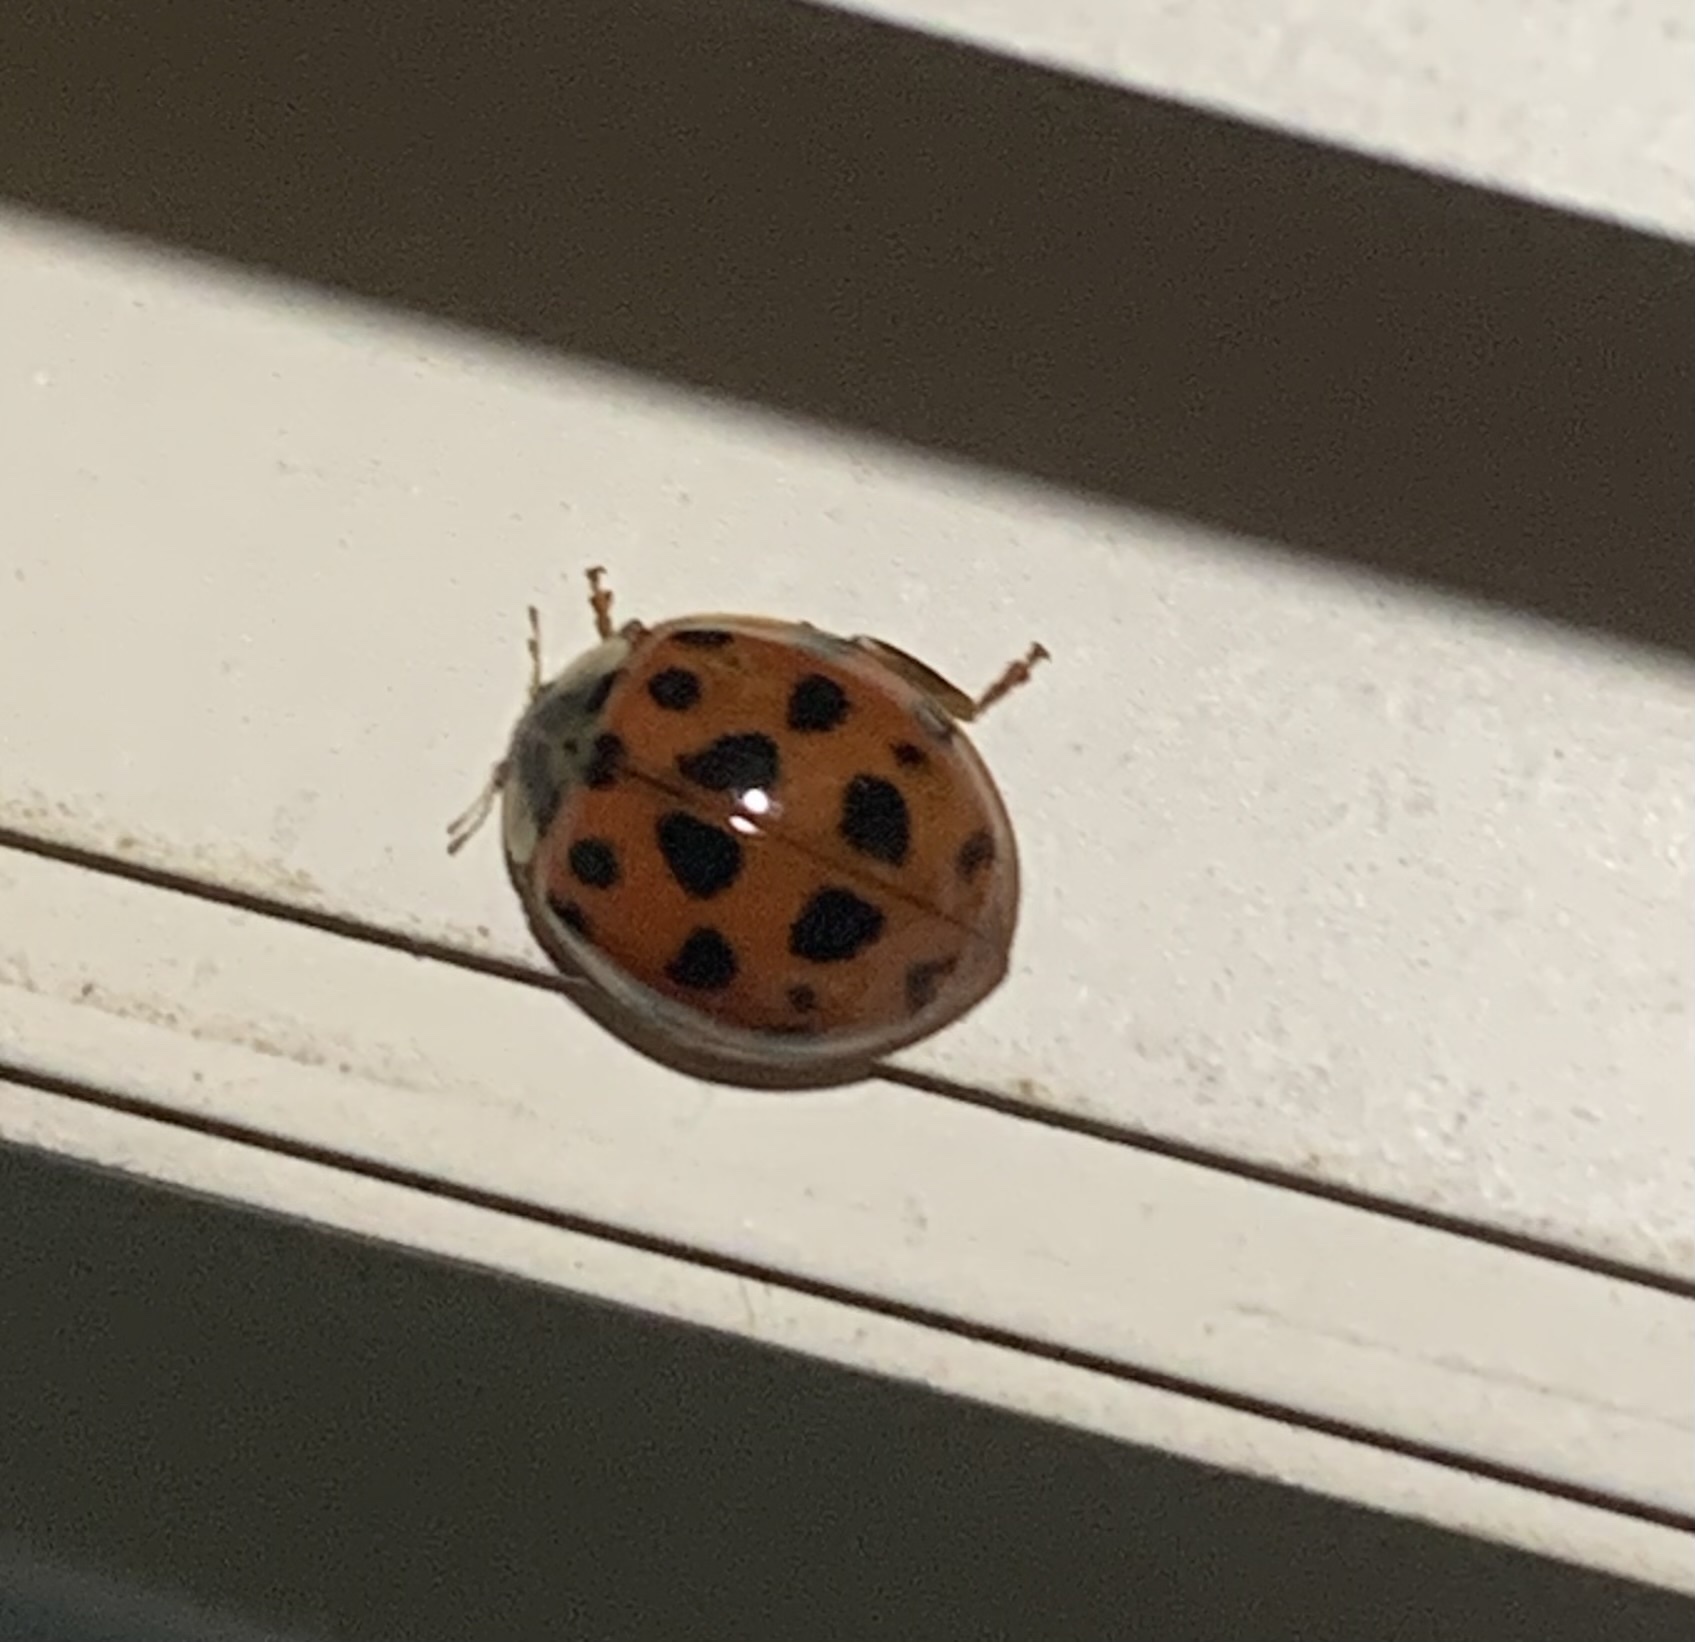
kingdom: Animalia
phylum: Arthropoda
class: Insecta
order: Coleoptera
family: Coccinellidae
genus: Harmonia
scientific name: Harmonia axyridis
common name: Harlequin ladybird
